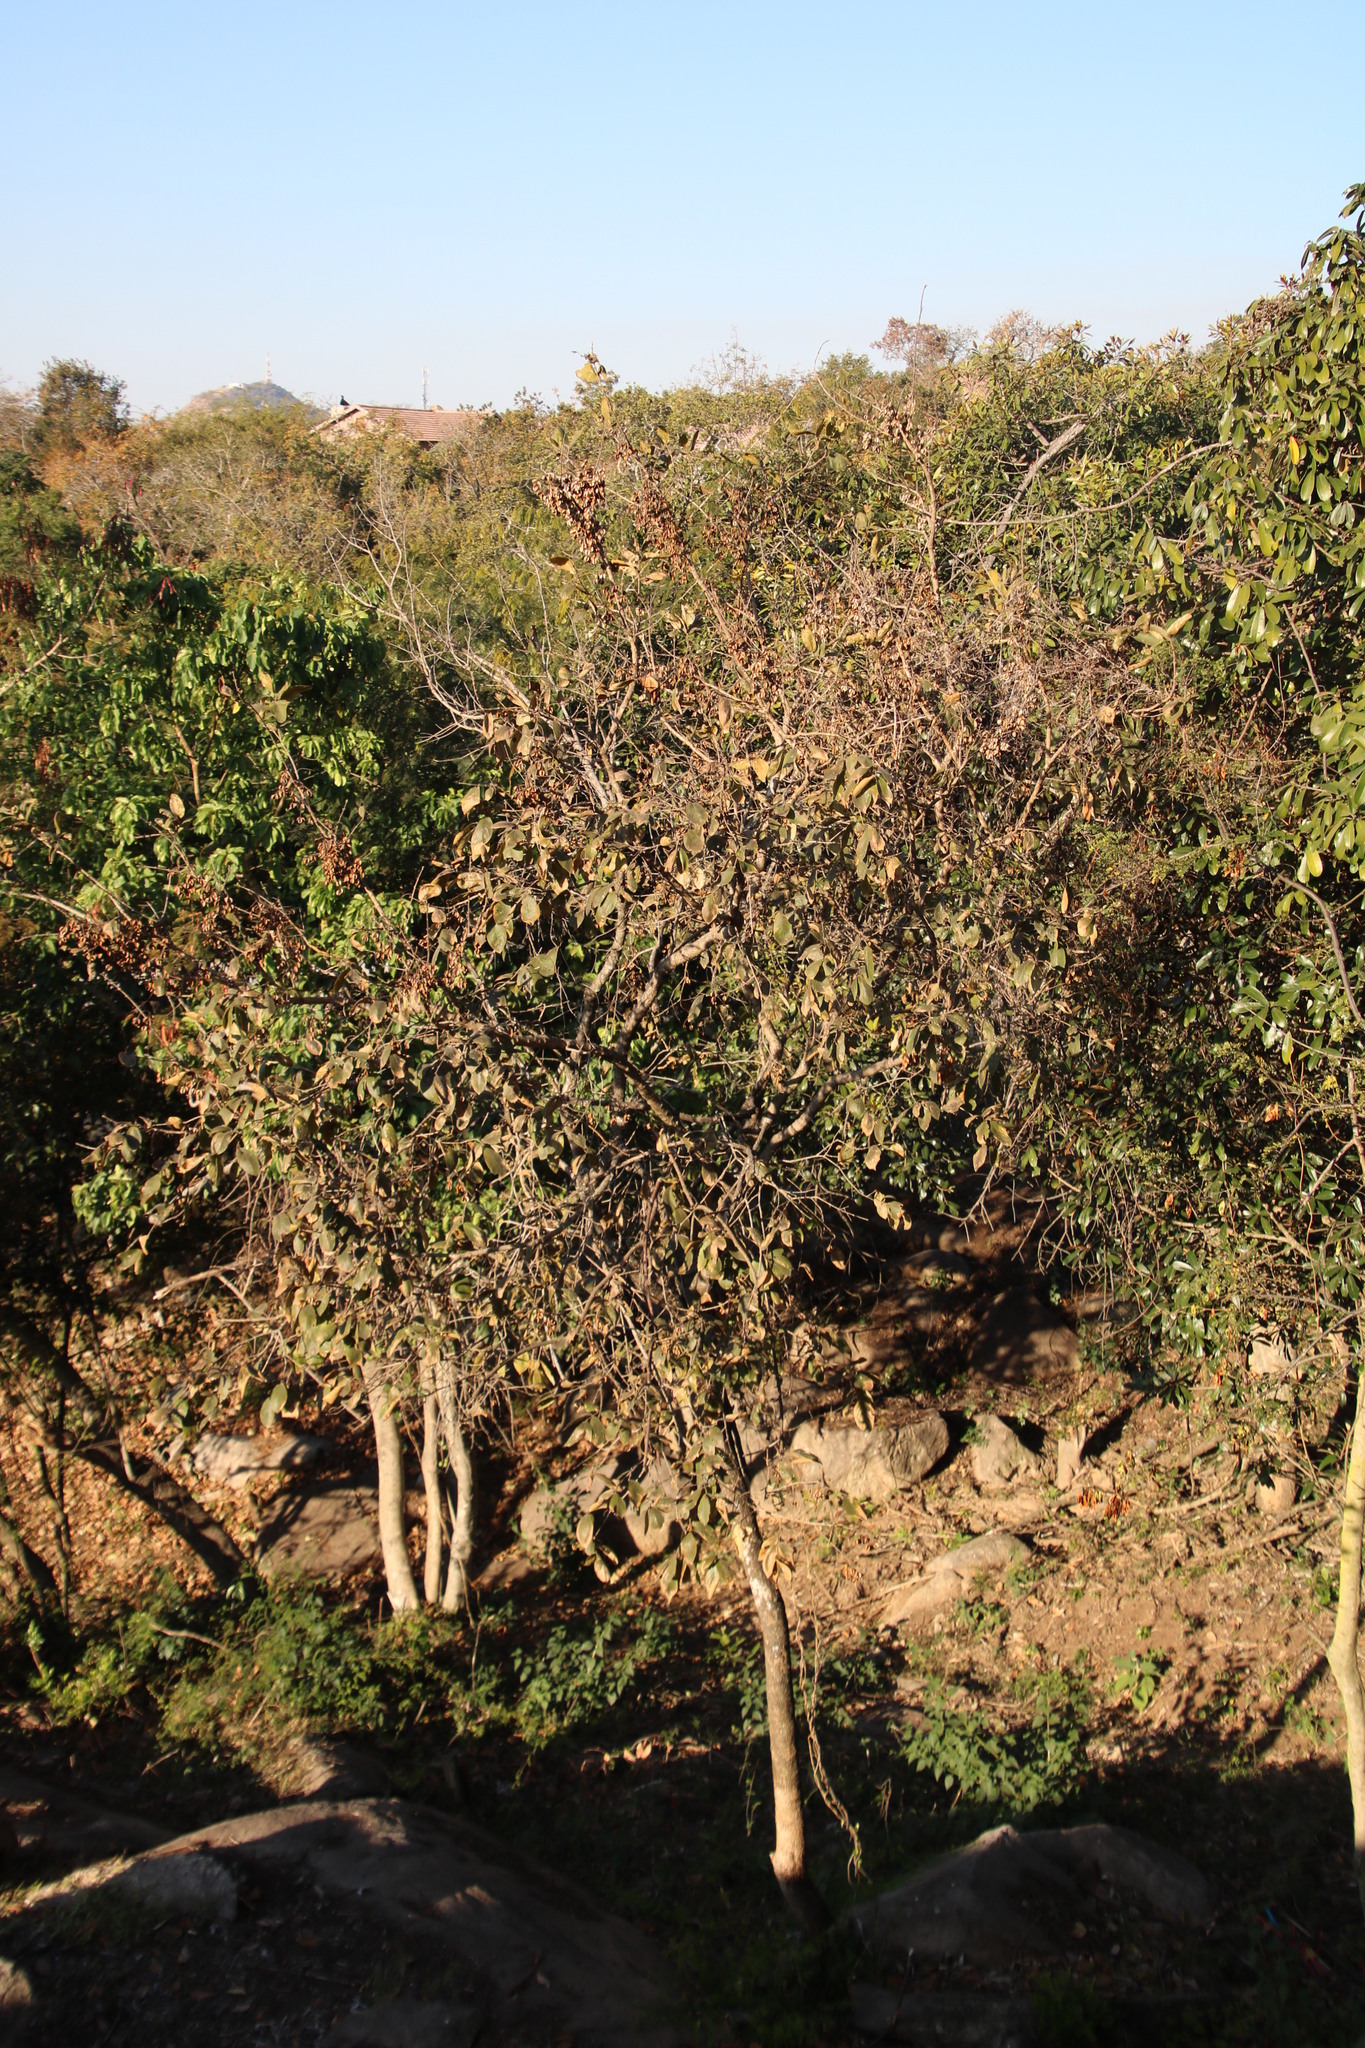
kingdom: Plantae
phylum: Tracheophyta
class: Magnoliopsida
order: Myrtales
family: Combretaceae
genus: Combretum
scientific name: Combretum molle
